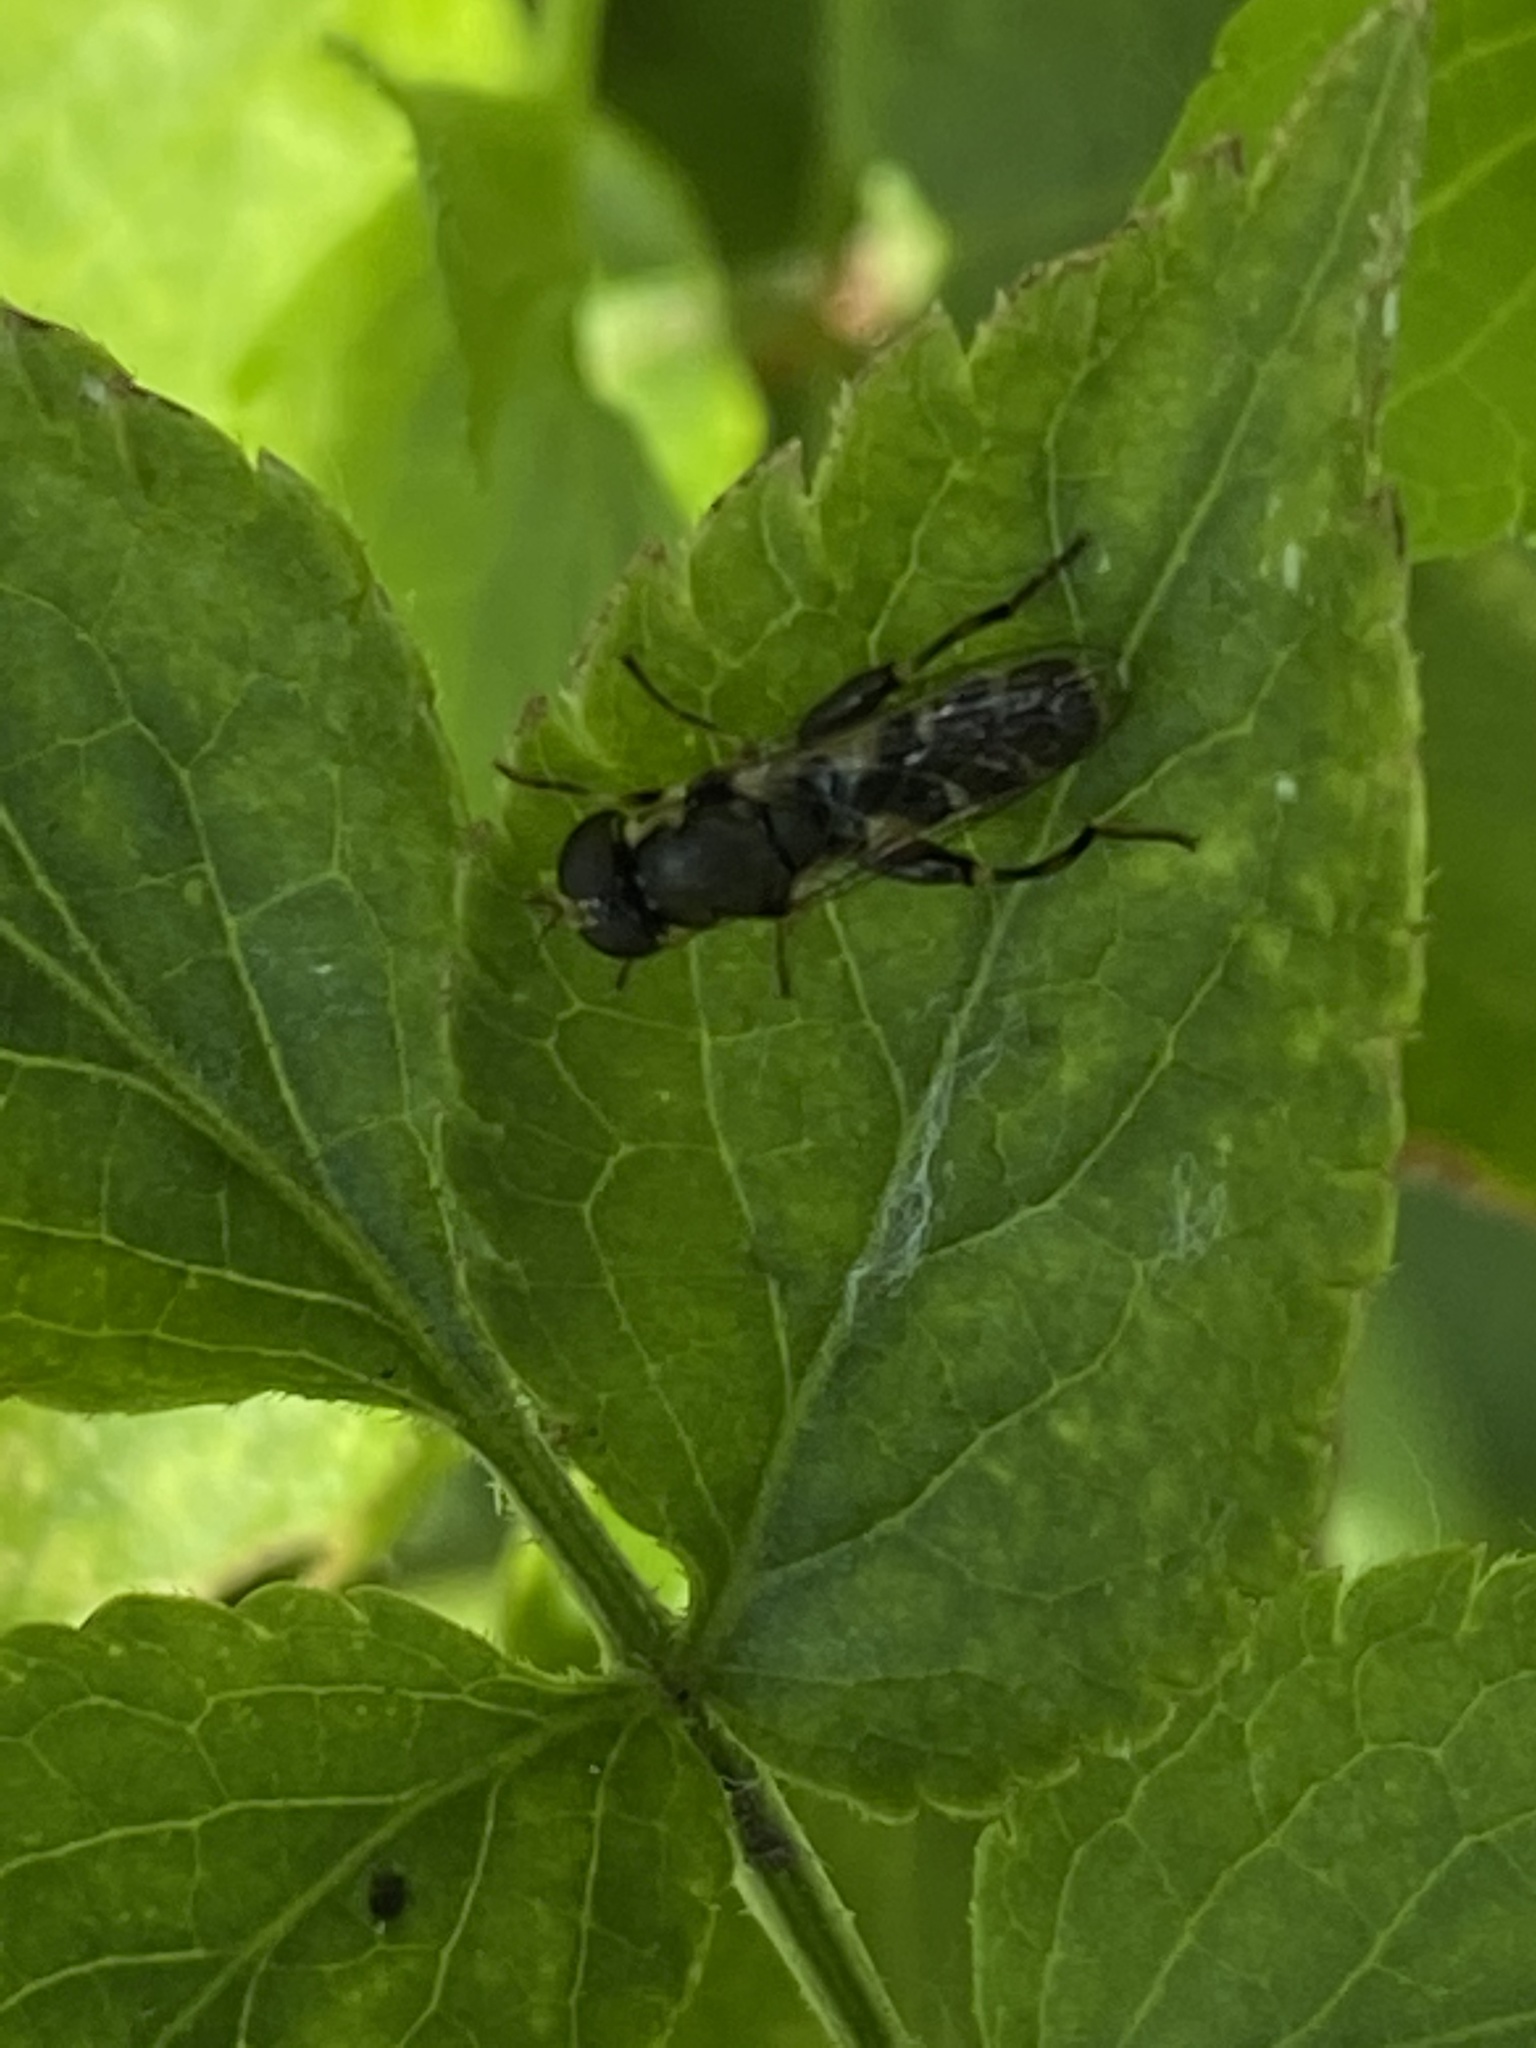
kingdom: Animalia
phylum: Arthropoda
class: Insecta
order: Diptera
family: Syrphidae
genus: Syritta
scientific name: Syritta pipiens
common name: Hover fly
